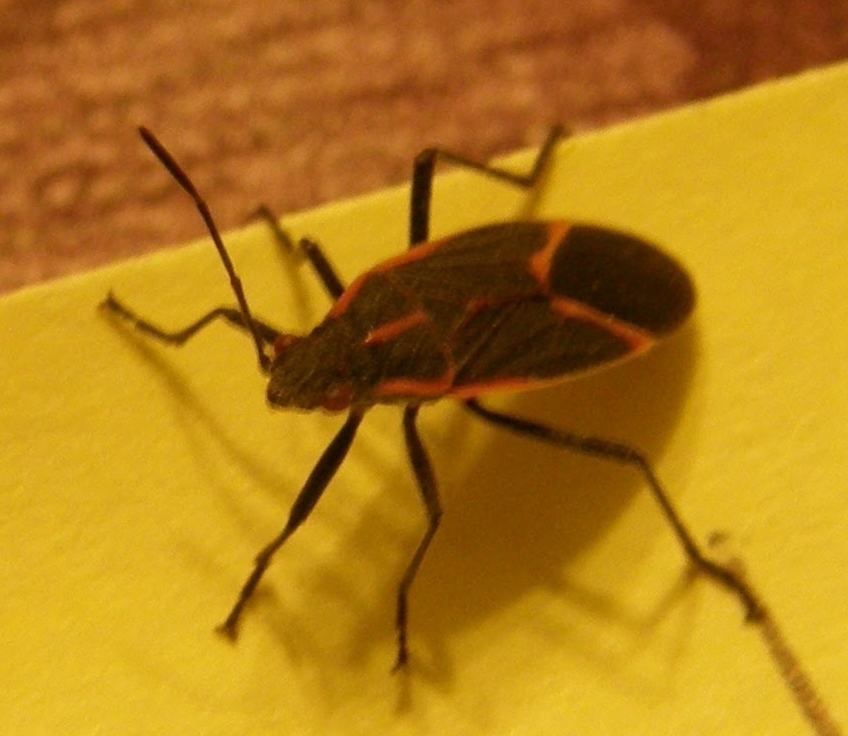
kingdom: Animalia
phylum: Arthropoda
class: Insecta
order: Hemiptera
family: Rhopalidae
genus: Boisea
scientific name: Boisea trivittata
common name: Boxelder bug
